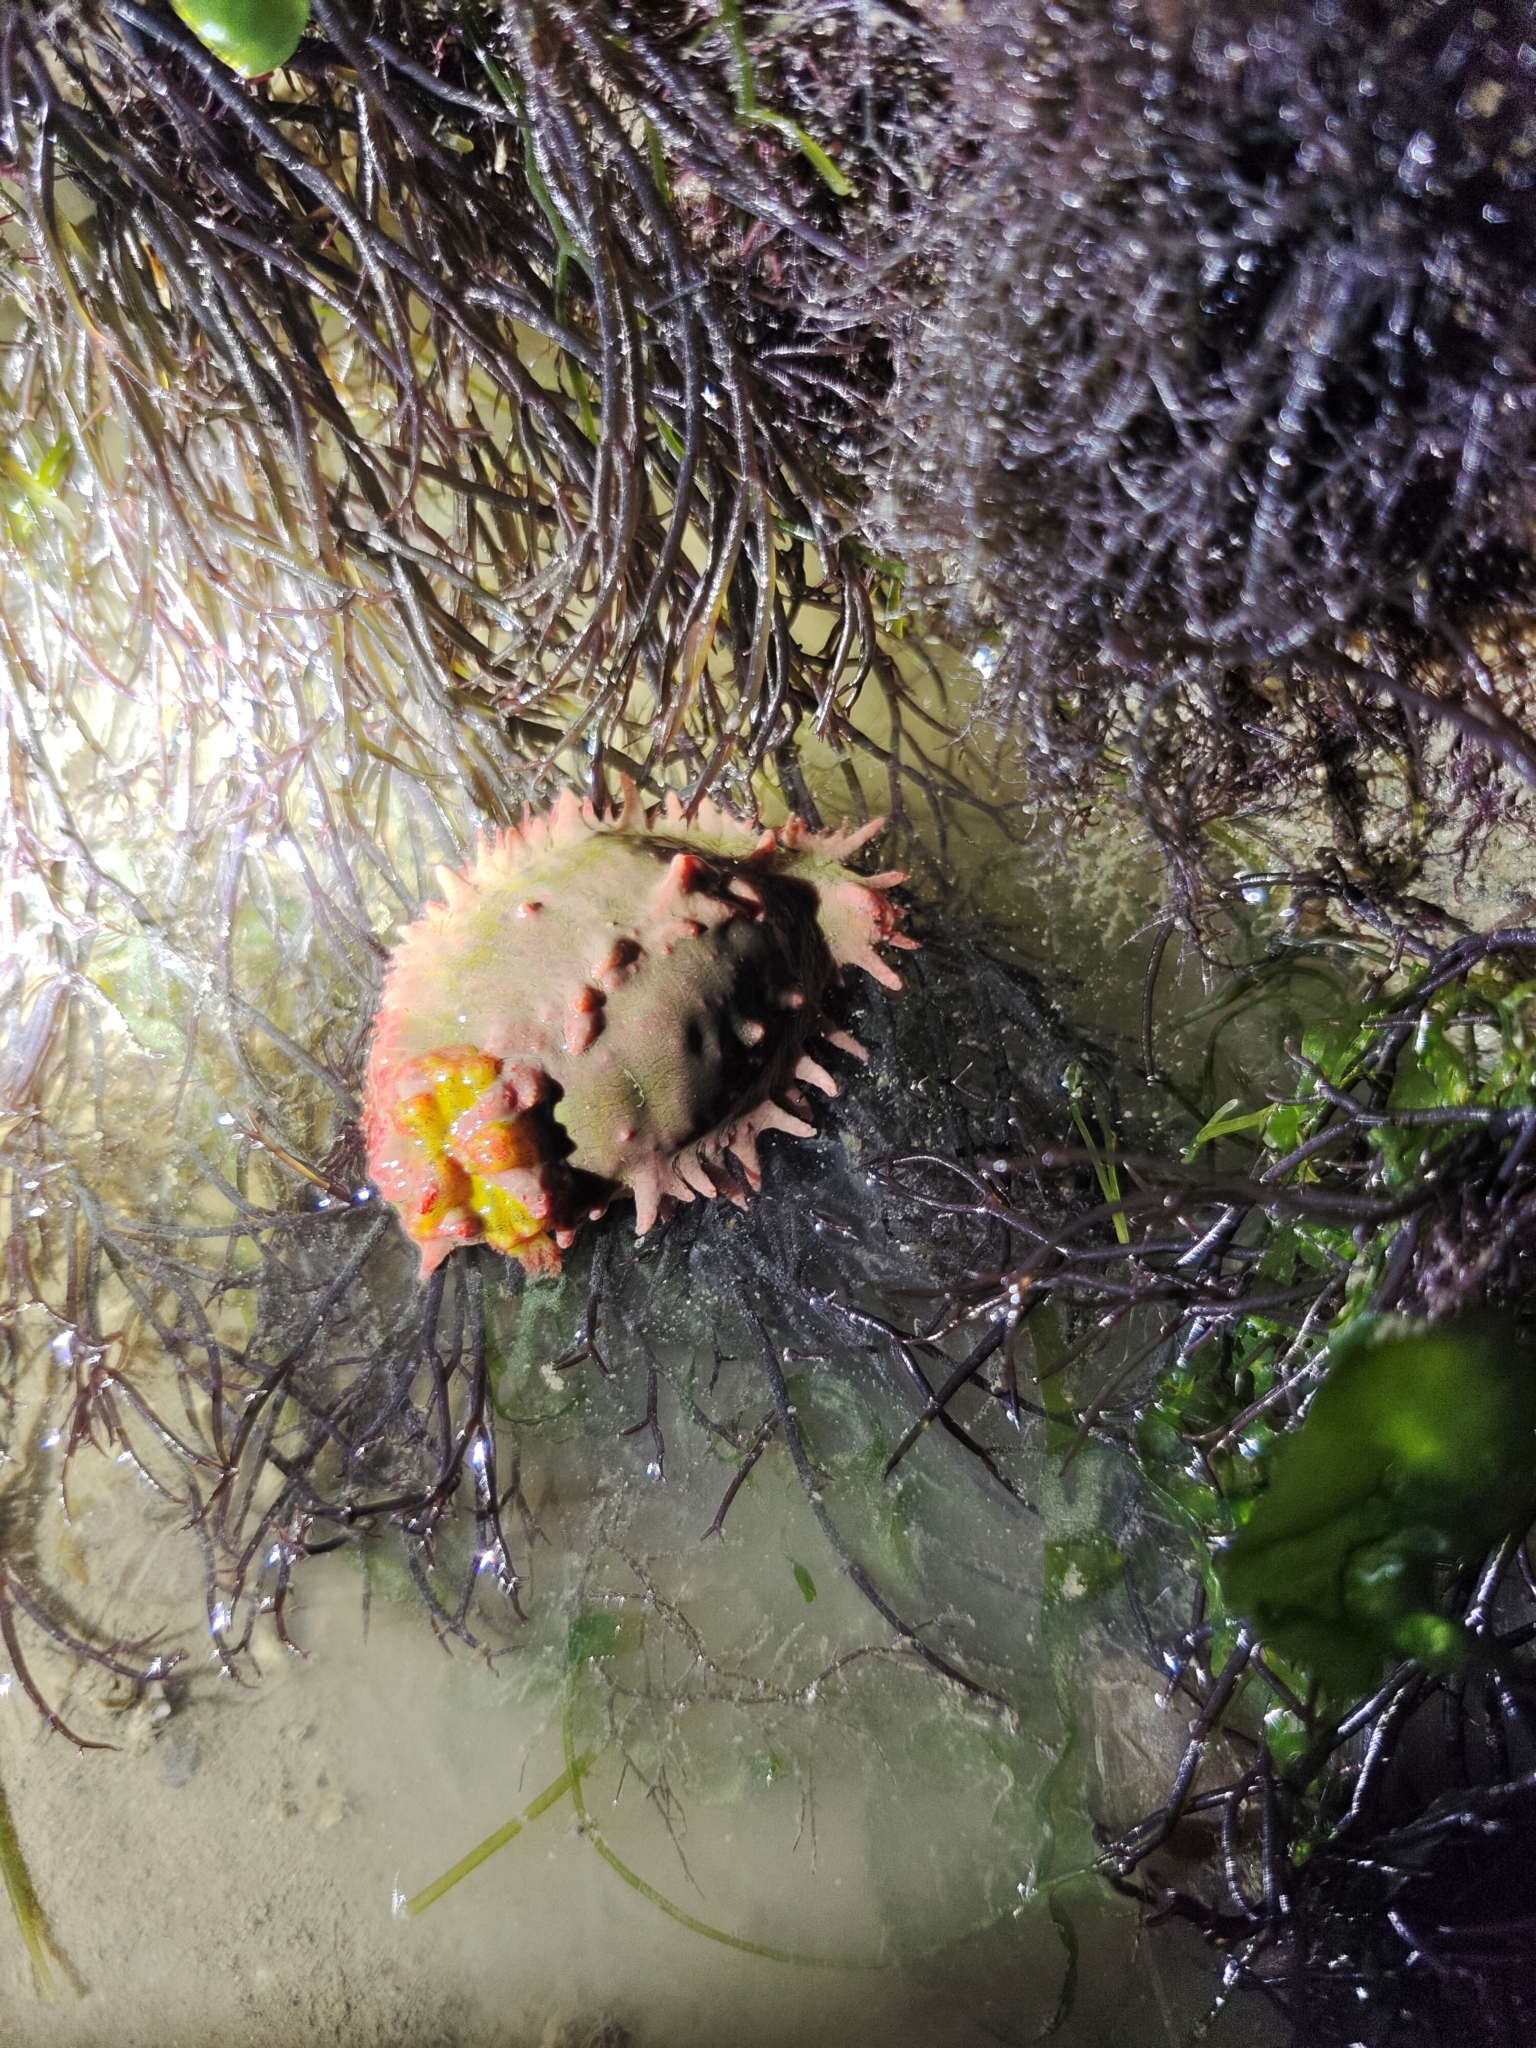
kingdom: Animalia
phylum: Echinodermata
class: Holothuroidea
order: Dendrochirotida
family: Cucumariidae
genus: Colochirus
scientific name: Colochirus quadrangularis
